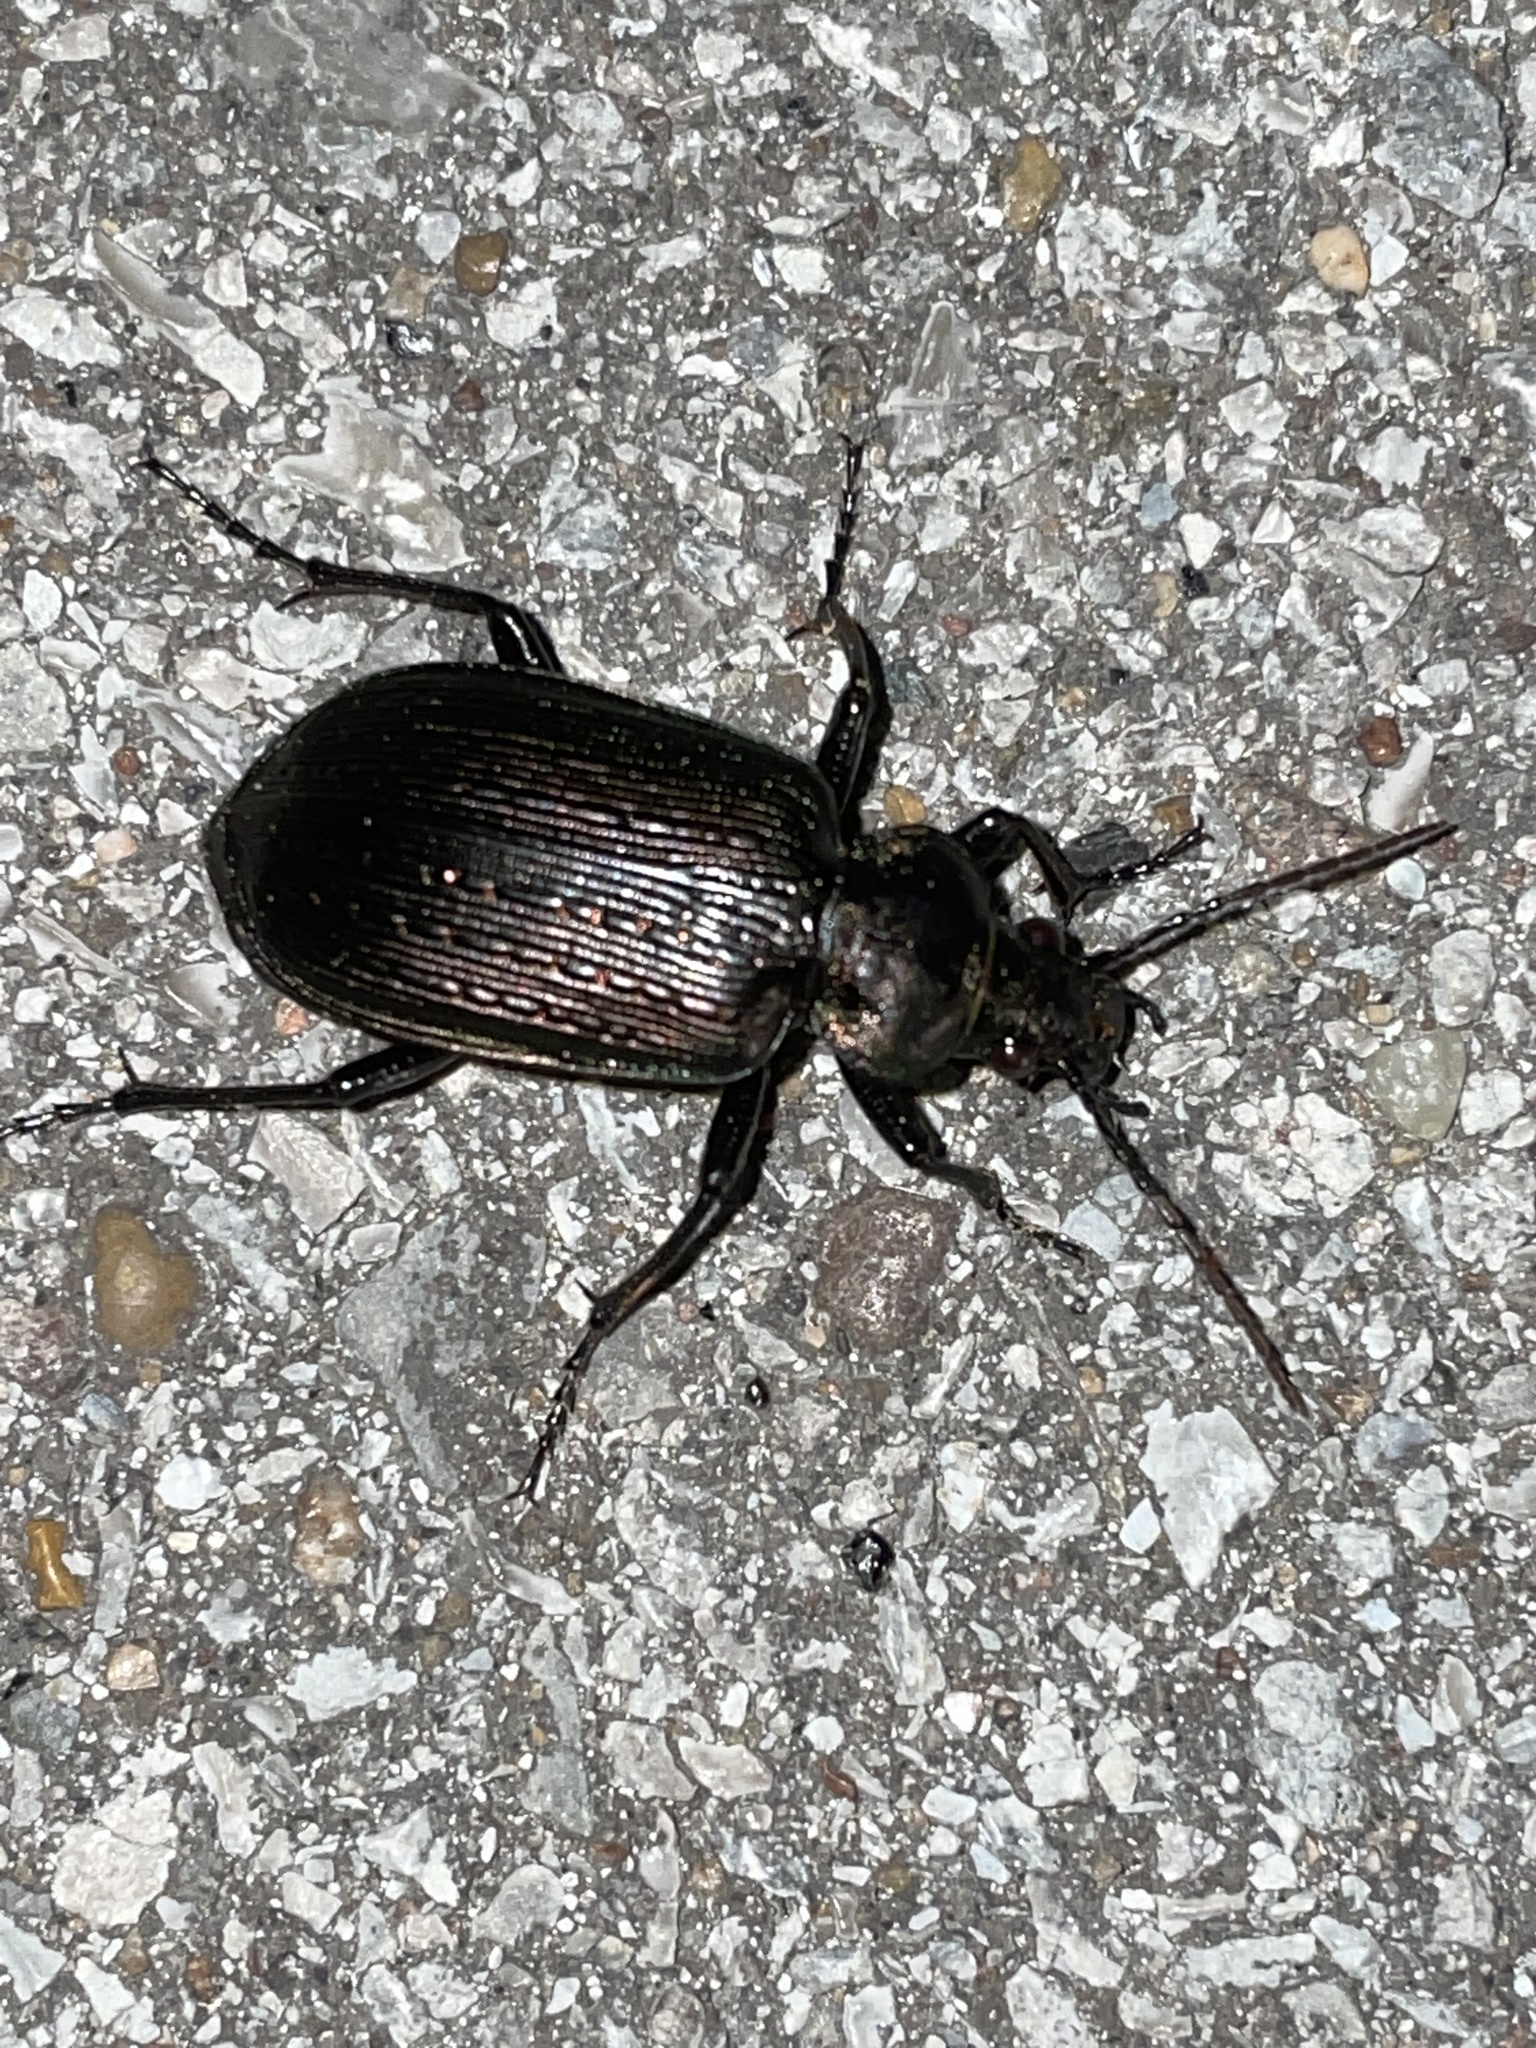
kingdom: Animalia
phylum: Arthropoda
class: Insecta
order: Coleoptera
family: Carabidae
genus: Calosoma
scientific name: Calosoma sayi
